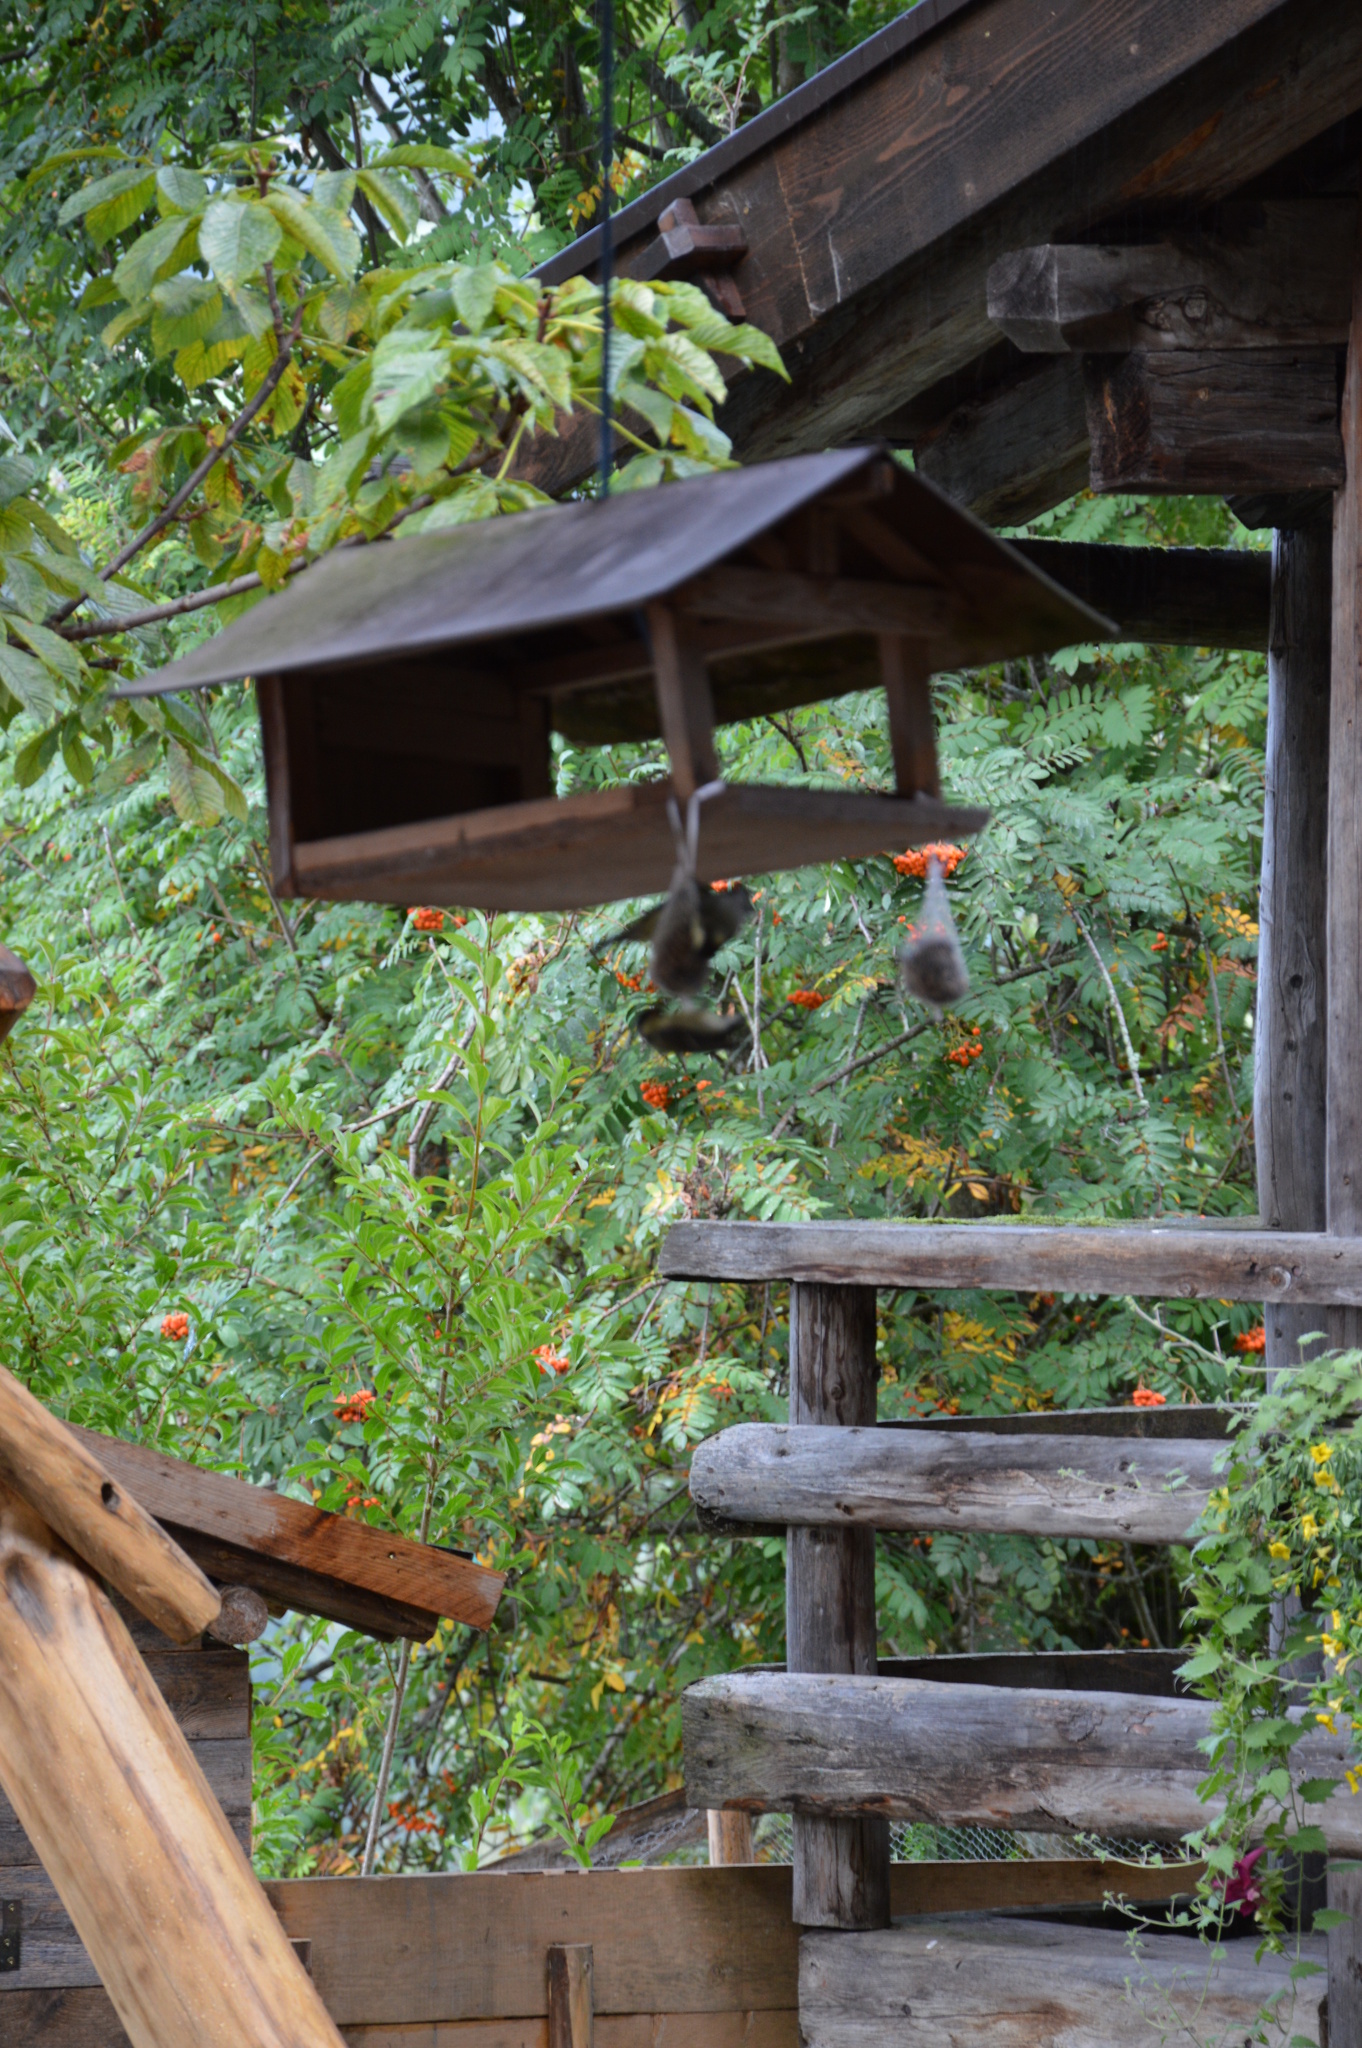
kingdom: Plantae
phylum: Tracheophyta
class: Magnoliopsida
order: Rosales
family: Rosaceae
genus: Sorbus
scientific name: Sorbus aucuparia
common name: Rowan
